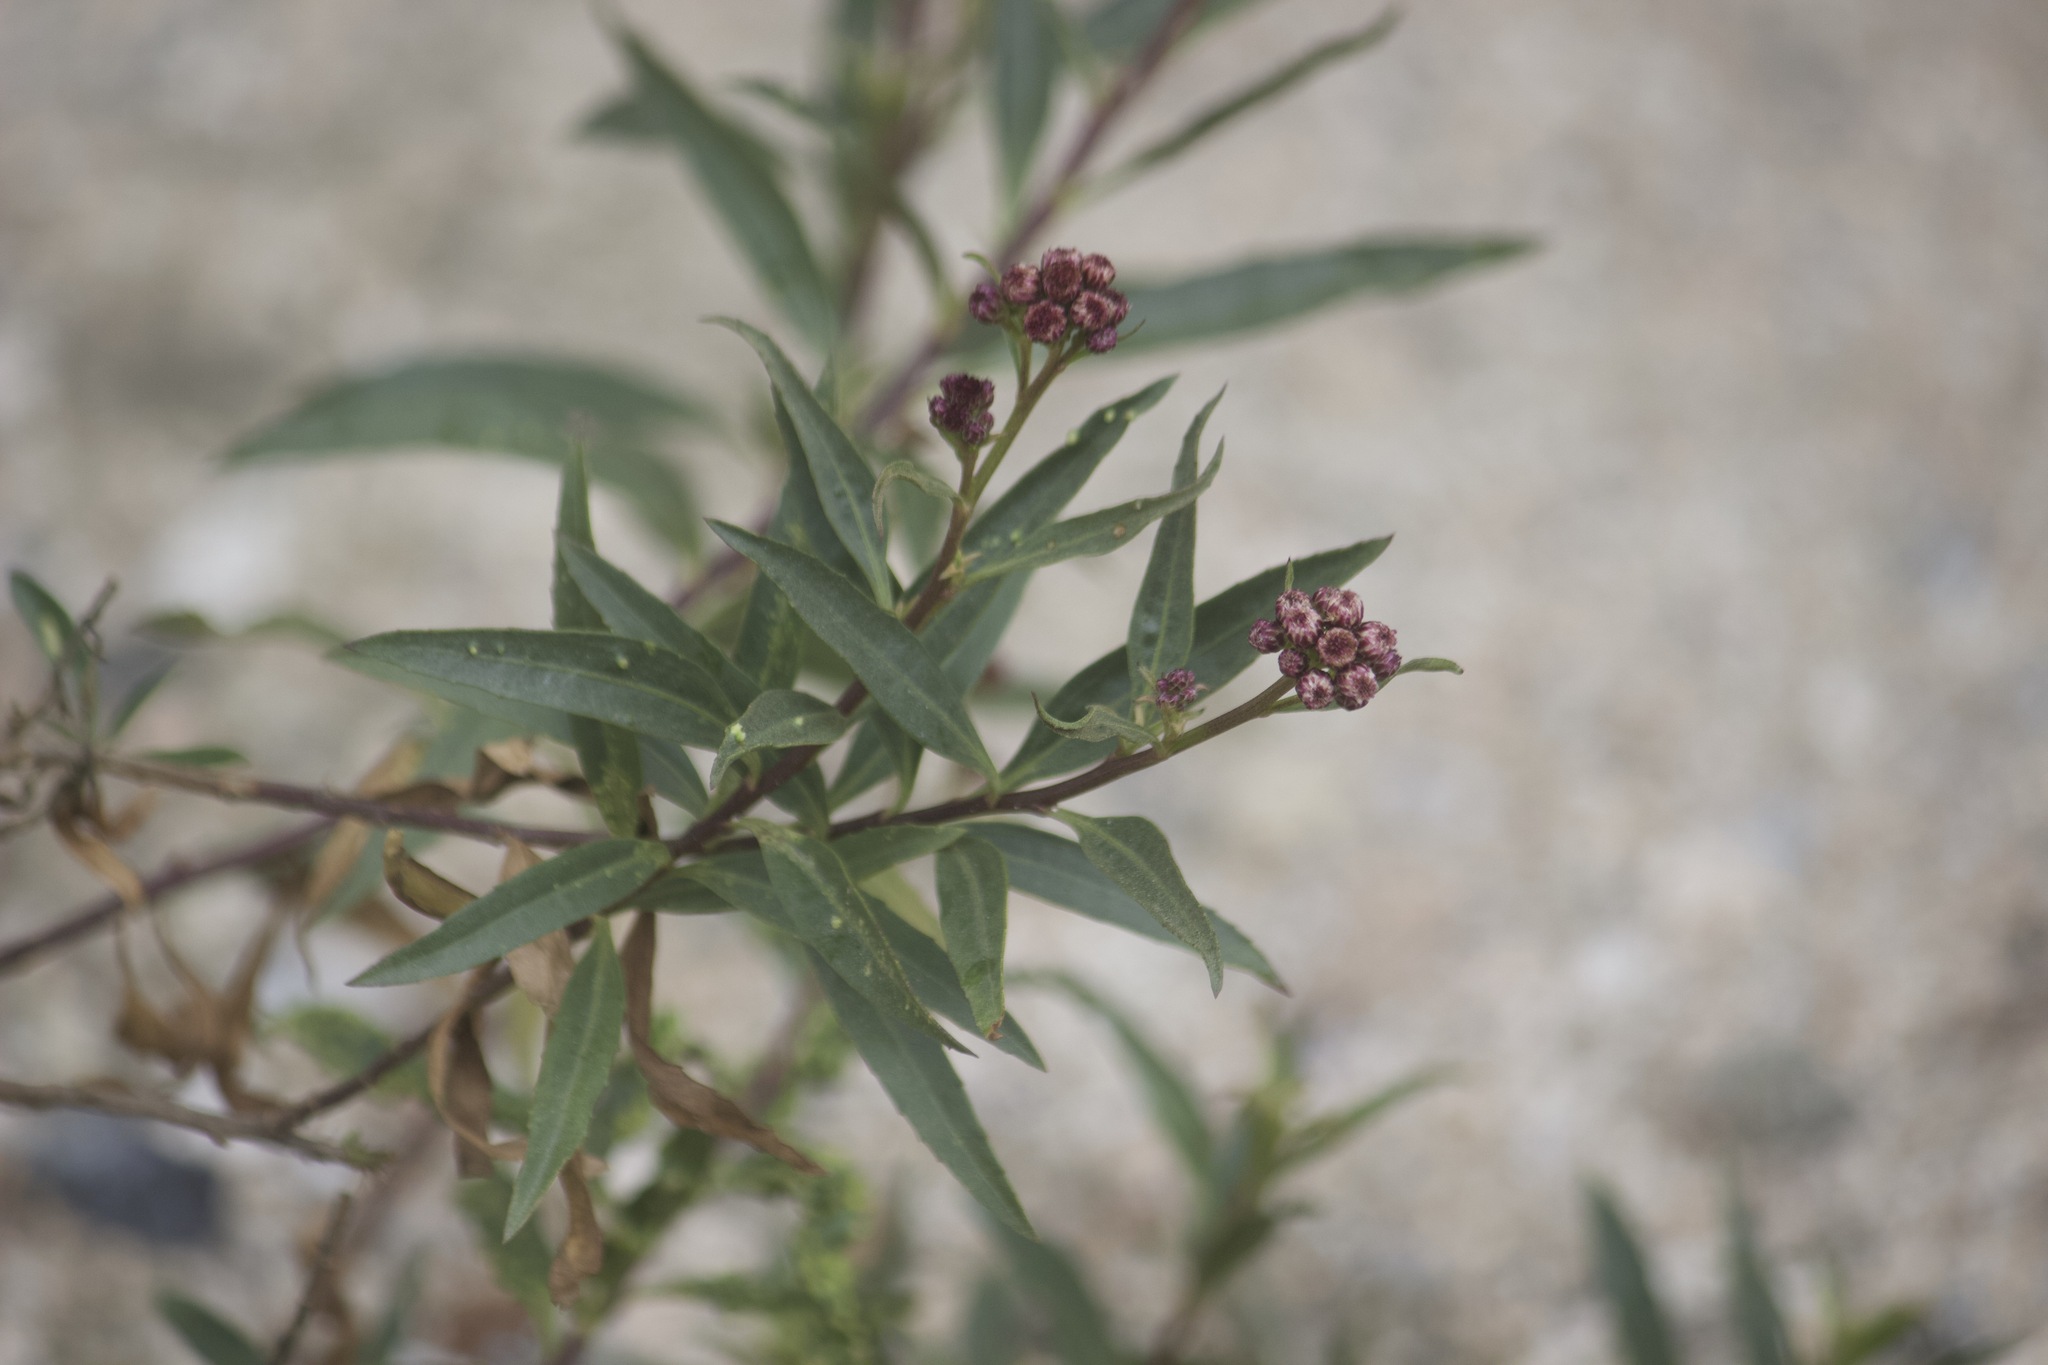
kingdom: Plantae
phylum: Tracheophyta
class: Magnoliopsida
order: Asterales
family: Asteraceae
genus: Baccharis
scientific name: Baccharis salicifolia
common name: Sticky baccharis
